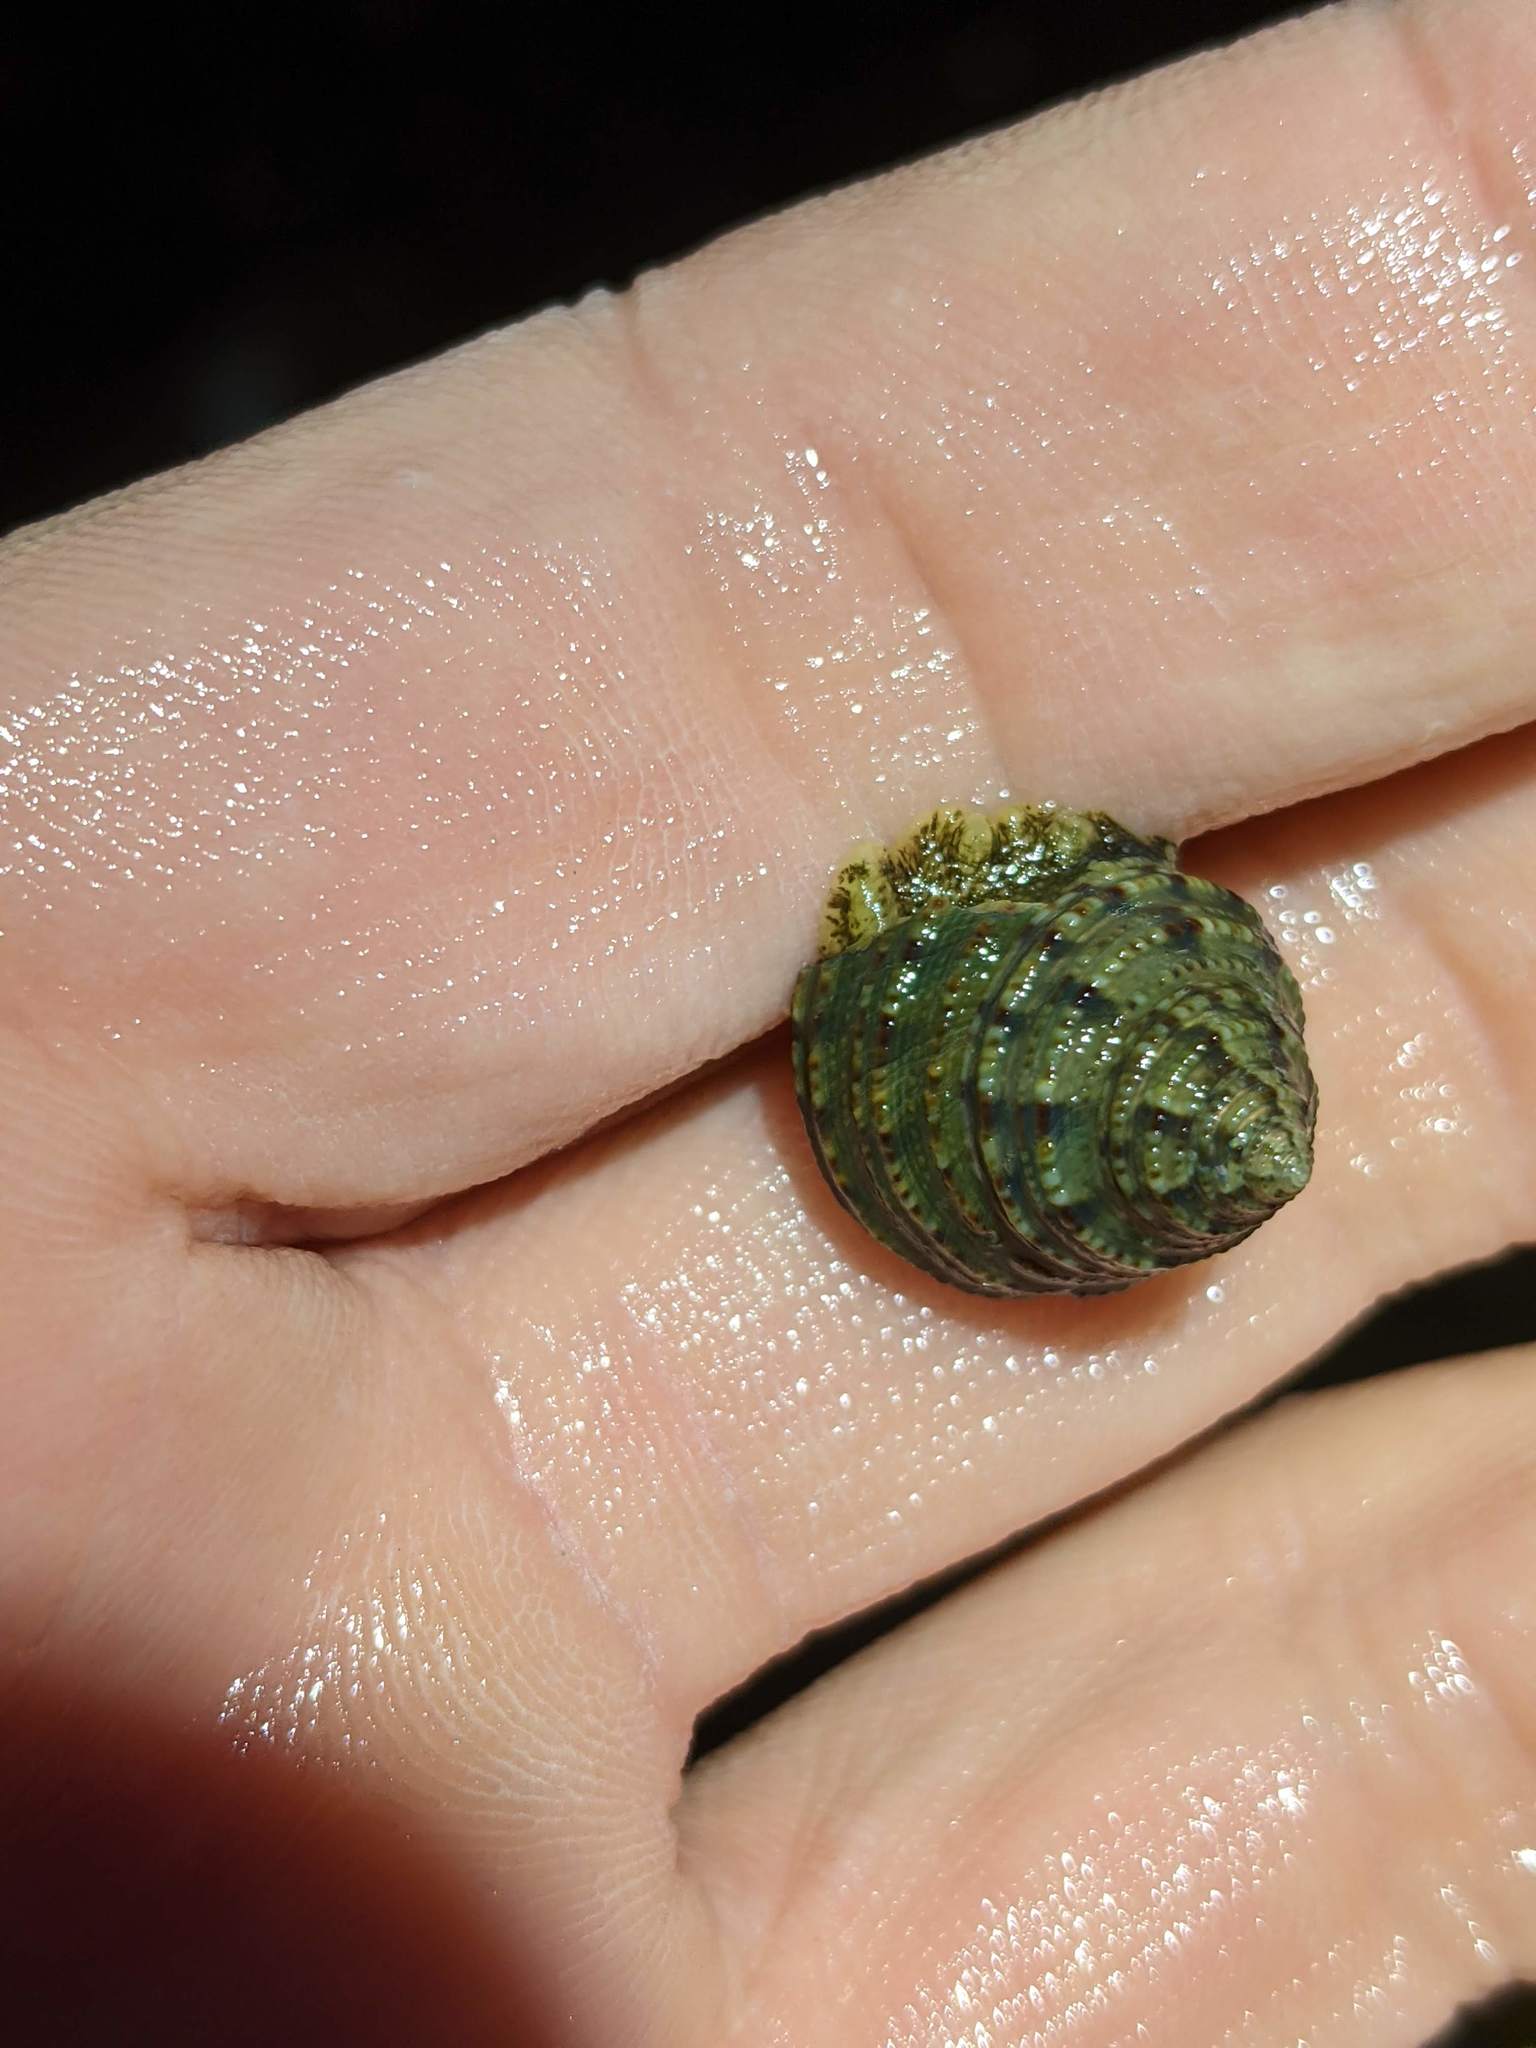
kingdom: Animalia
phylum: Mollusca
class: Gastropoda
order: Trochida
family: Calliostomatidae
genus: Calliostoma
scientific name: Calliostoma gemmulatum
